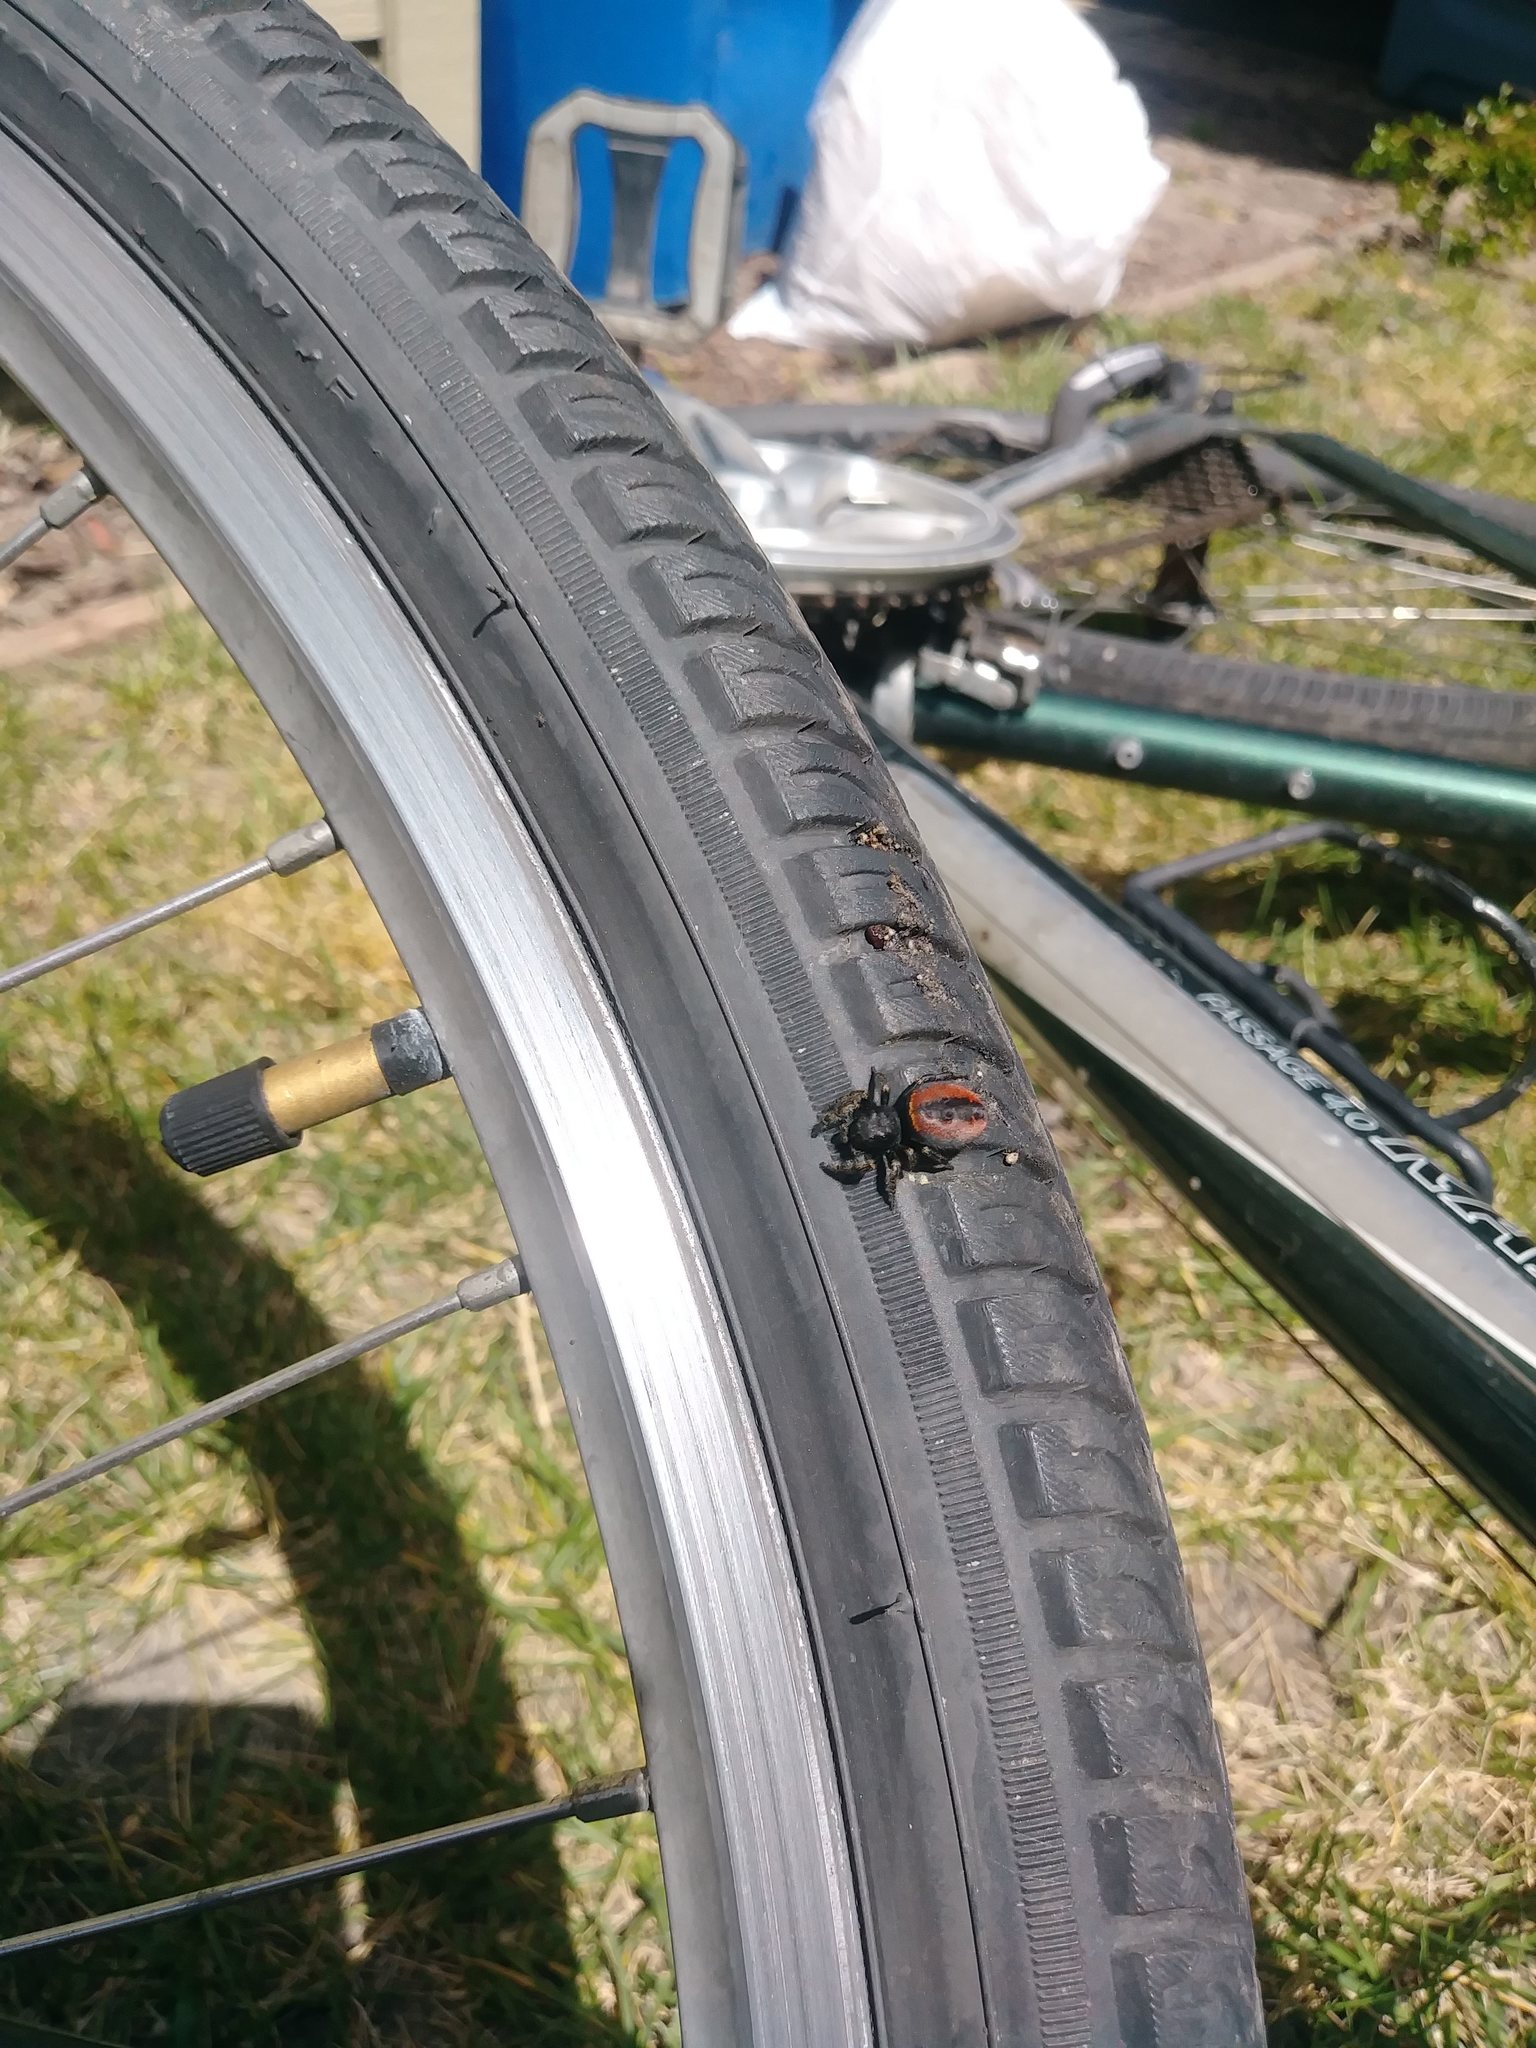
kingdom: Animalia
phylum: Arthropoda
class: Arachnida
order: Araneae
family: Salticidae
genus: Phidippus
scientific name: Phidippus johnsoni
